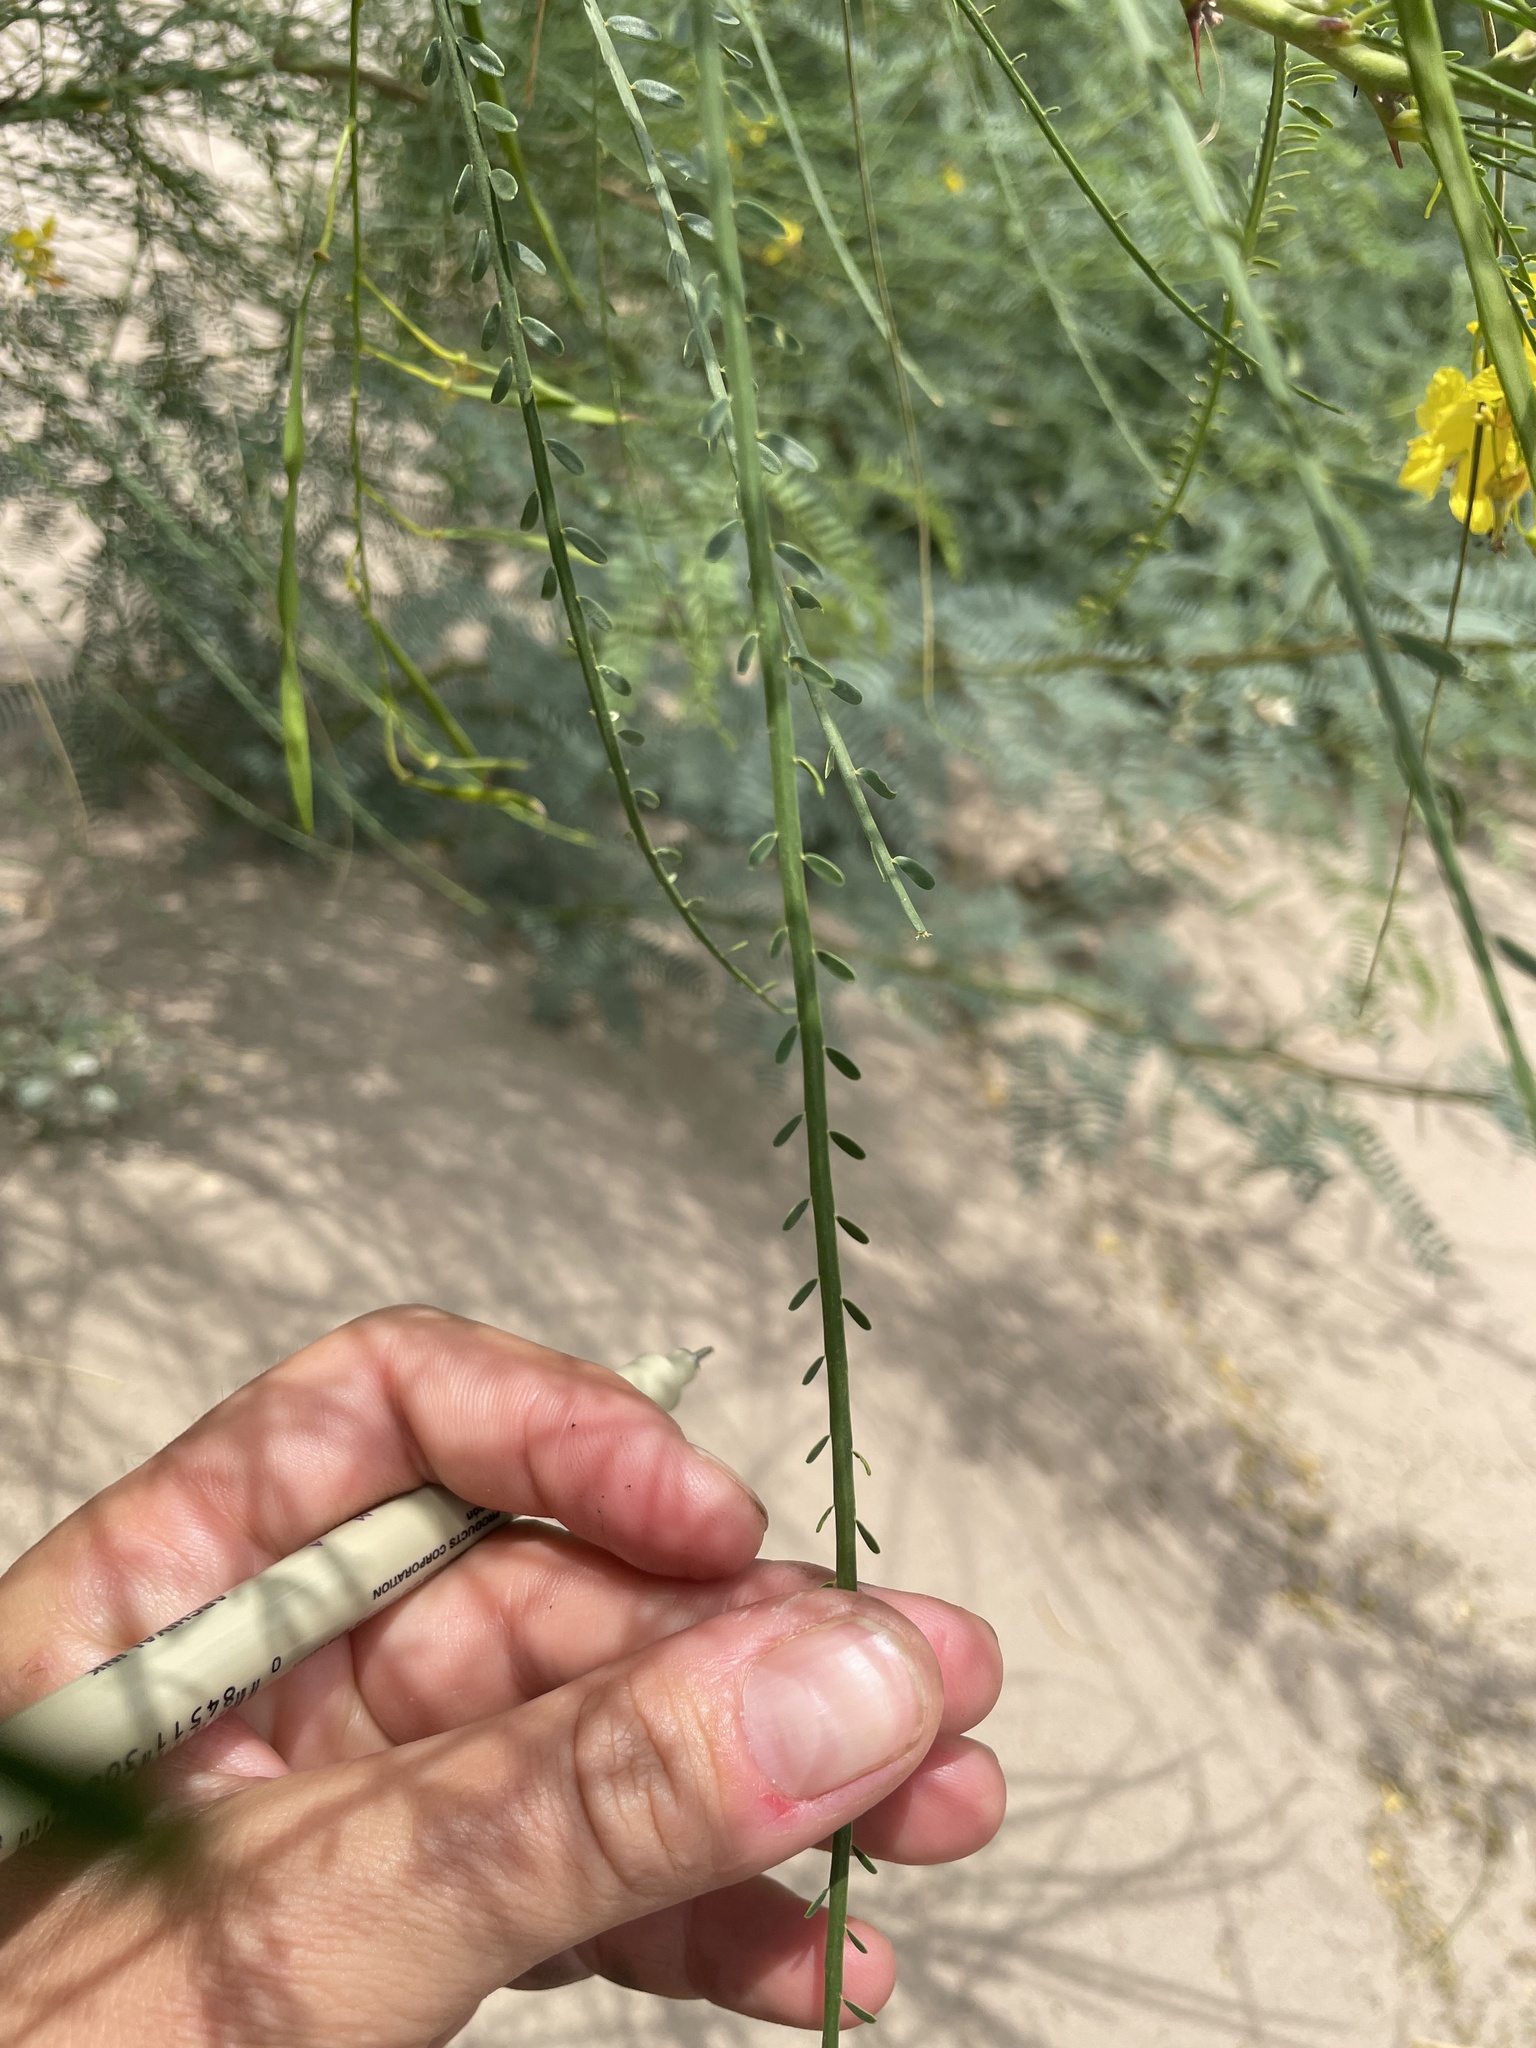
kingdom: Plantae
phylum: Tracheophyta
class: Magnoliopsida
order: Fabales
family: Fabaceae
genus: Parkinsonia
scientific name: Parkinsonia aculeata
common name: Jerusalem thorn
